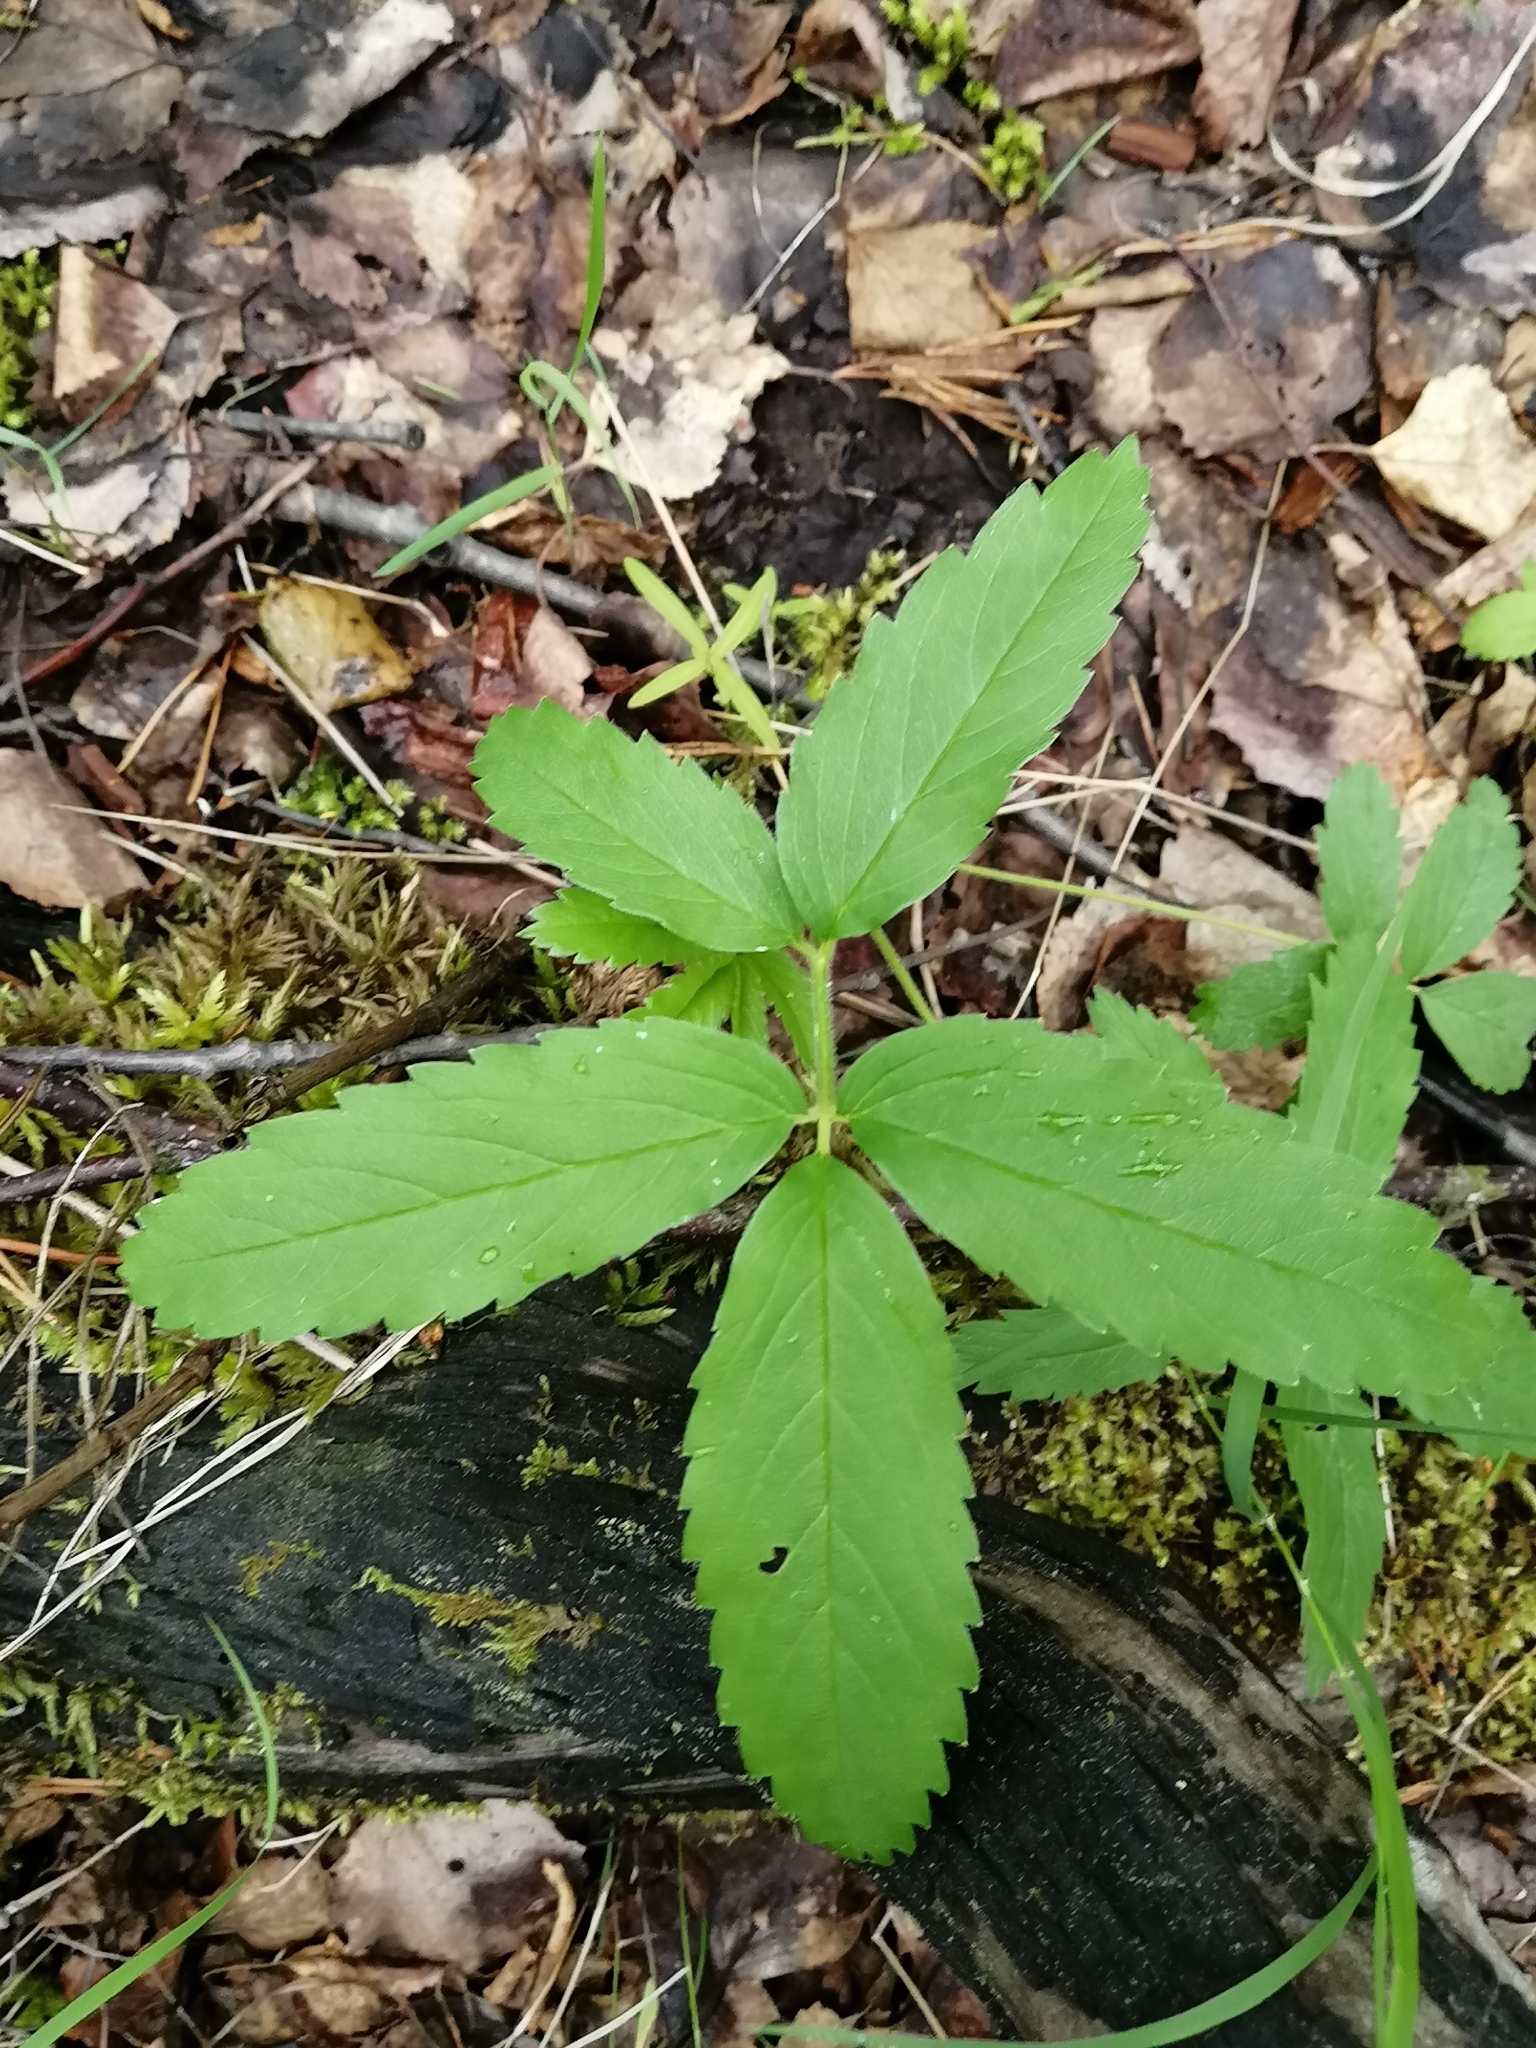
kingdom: Plantae
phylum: Tracheophyta
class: Magnoliopsida
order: Rosales
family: Rosaceae
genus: Comarum
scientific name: Comarum palustre
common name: Marsh cinquefoil
